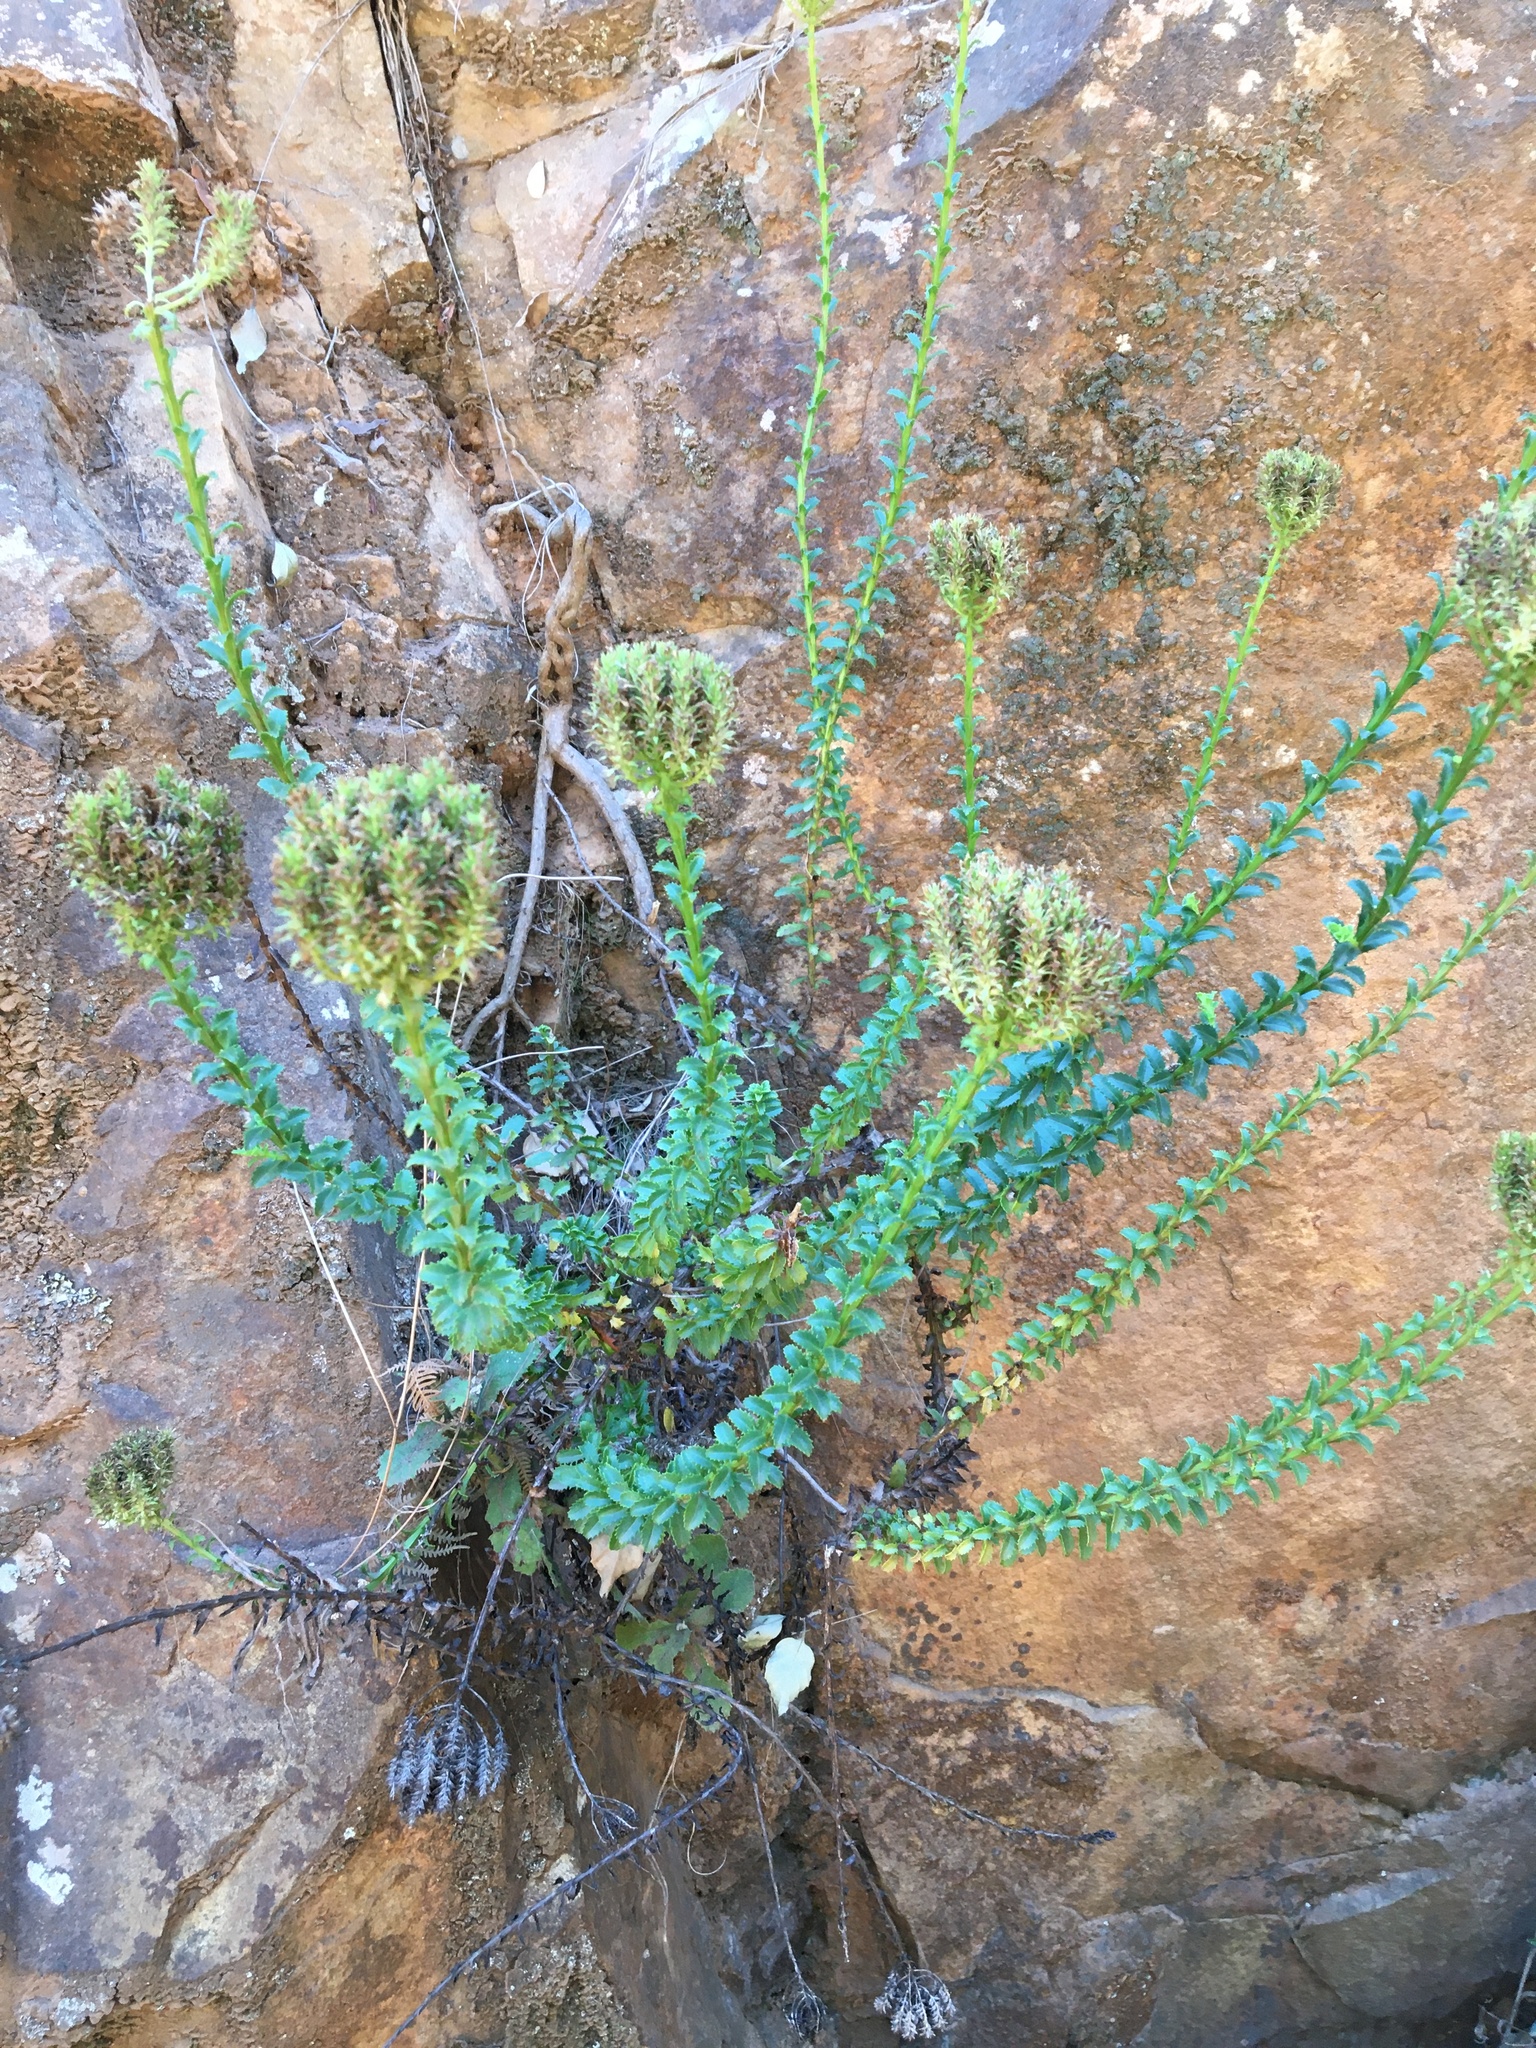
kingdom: Plantae
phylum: Tracheophyta
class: Magnoliopsida
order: Lamiales
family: Scrophulariaceae
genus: Pseudoselago
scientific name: Pseudoselago serrata
